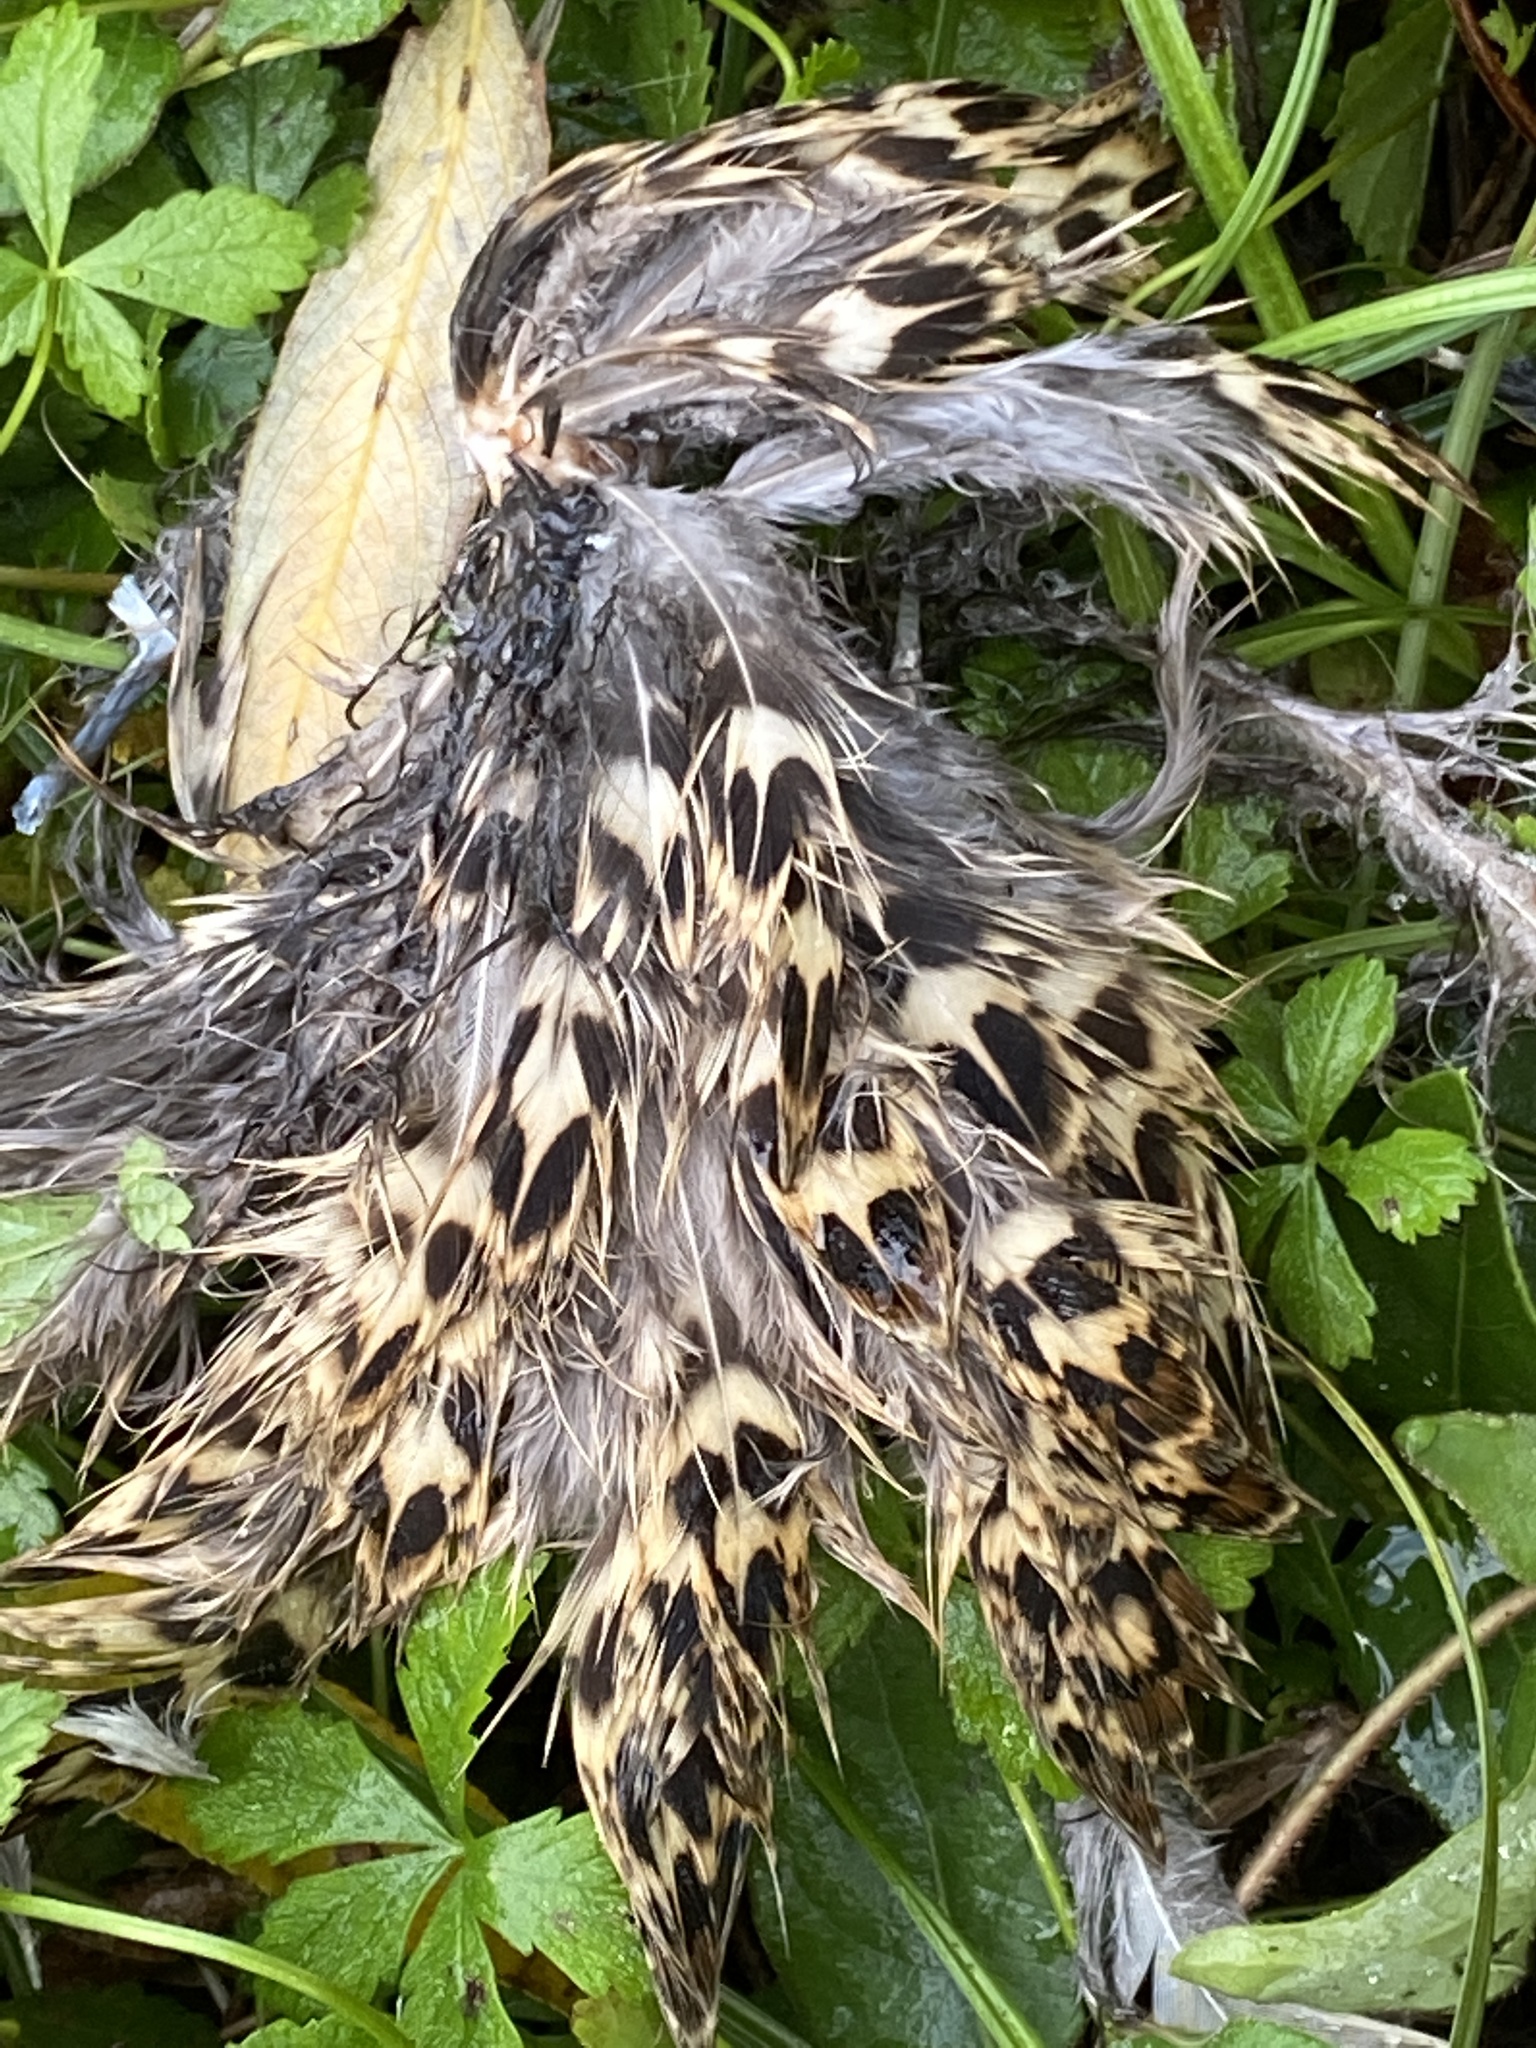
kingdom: Animalia
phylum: Chordata
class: Aves
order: Galliformes
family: Phasianidae
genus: Phasianus
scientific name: Phasianus colchicus
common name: Common pheasant
